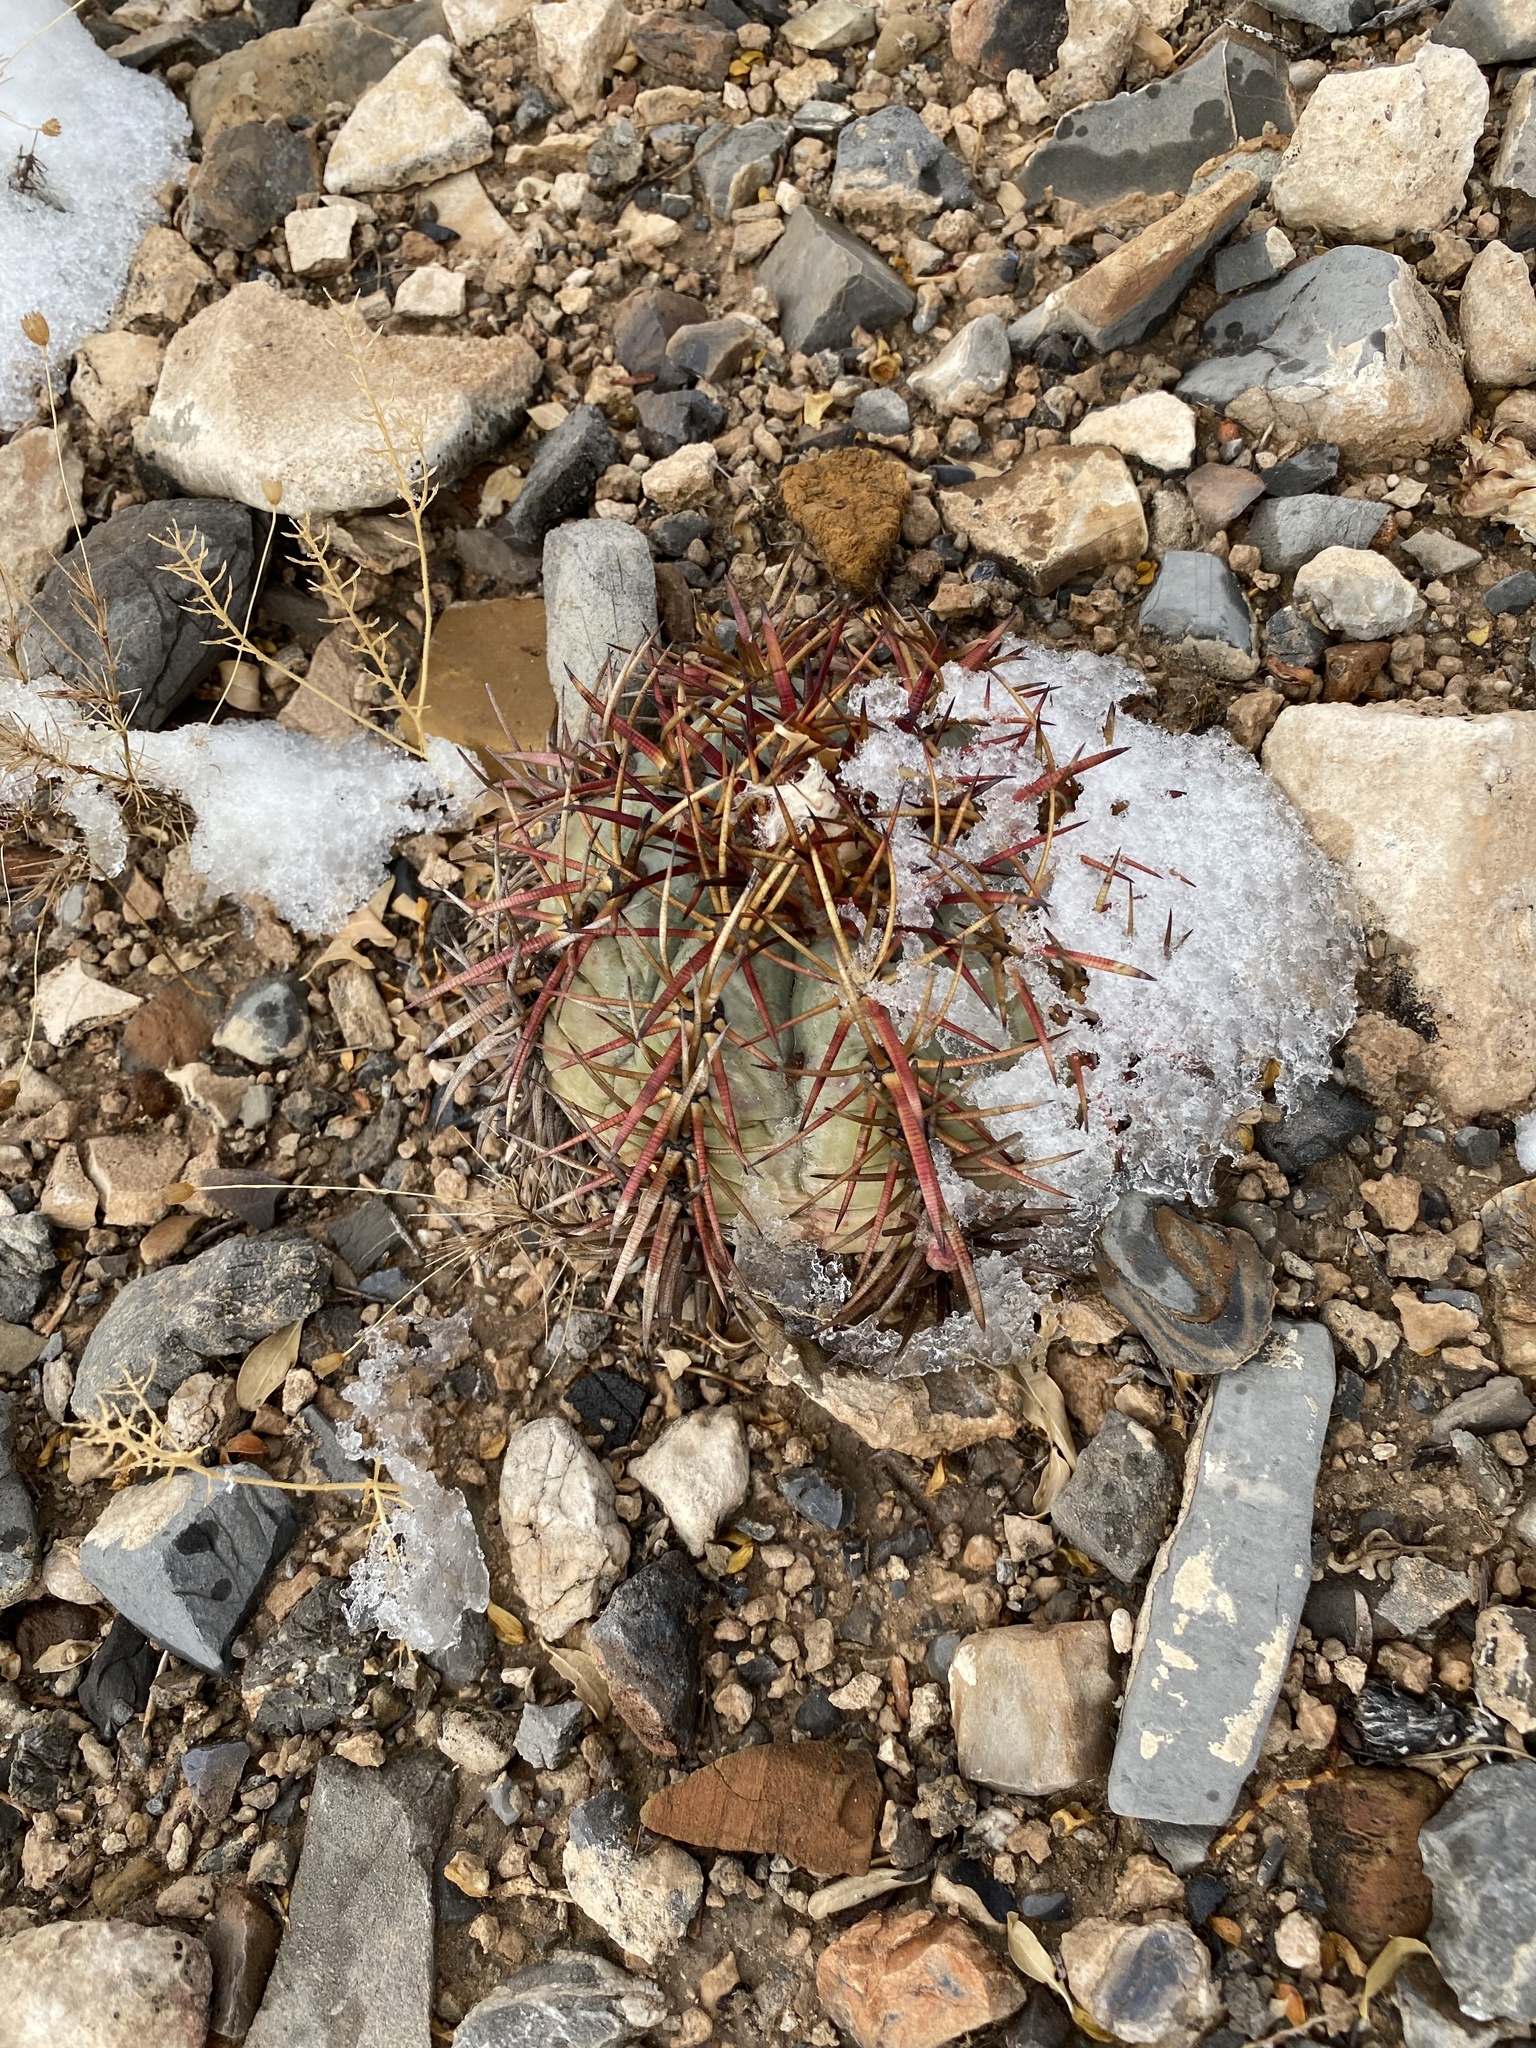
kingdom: Plantae
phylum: Tracheophyta
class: Magnoliopsida
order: Caryophyllales
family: Cactaceae
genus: Echinocactus
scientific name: Echinocactus horizonthalonius
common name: Devilshead
